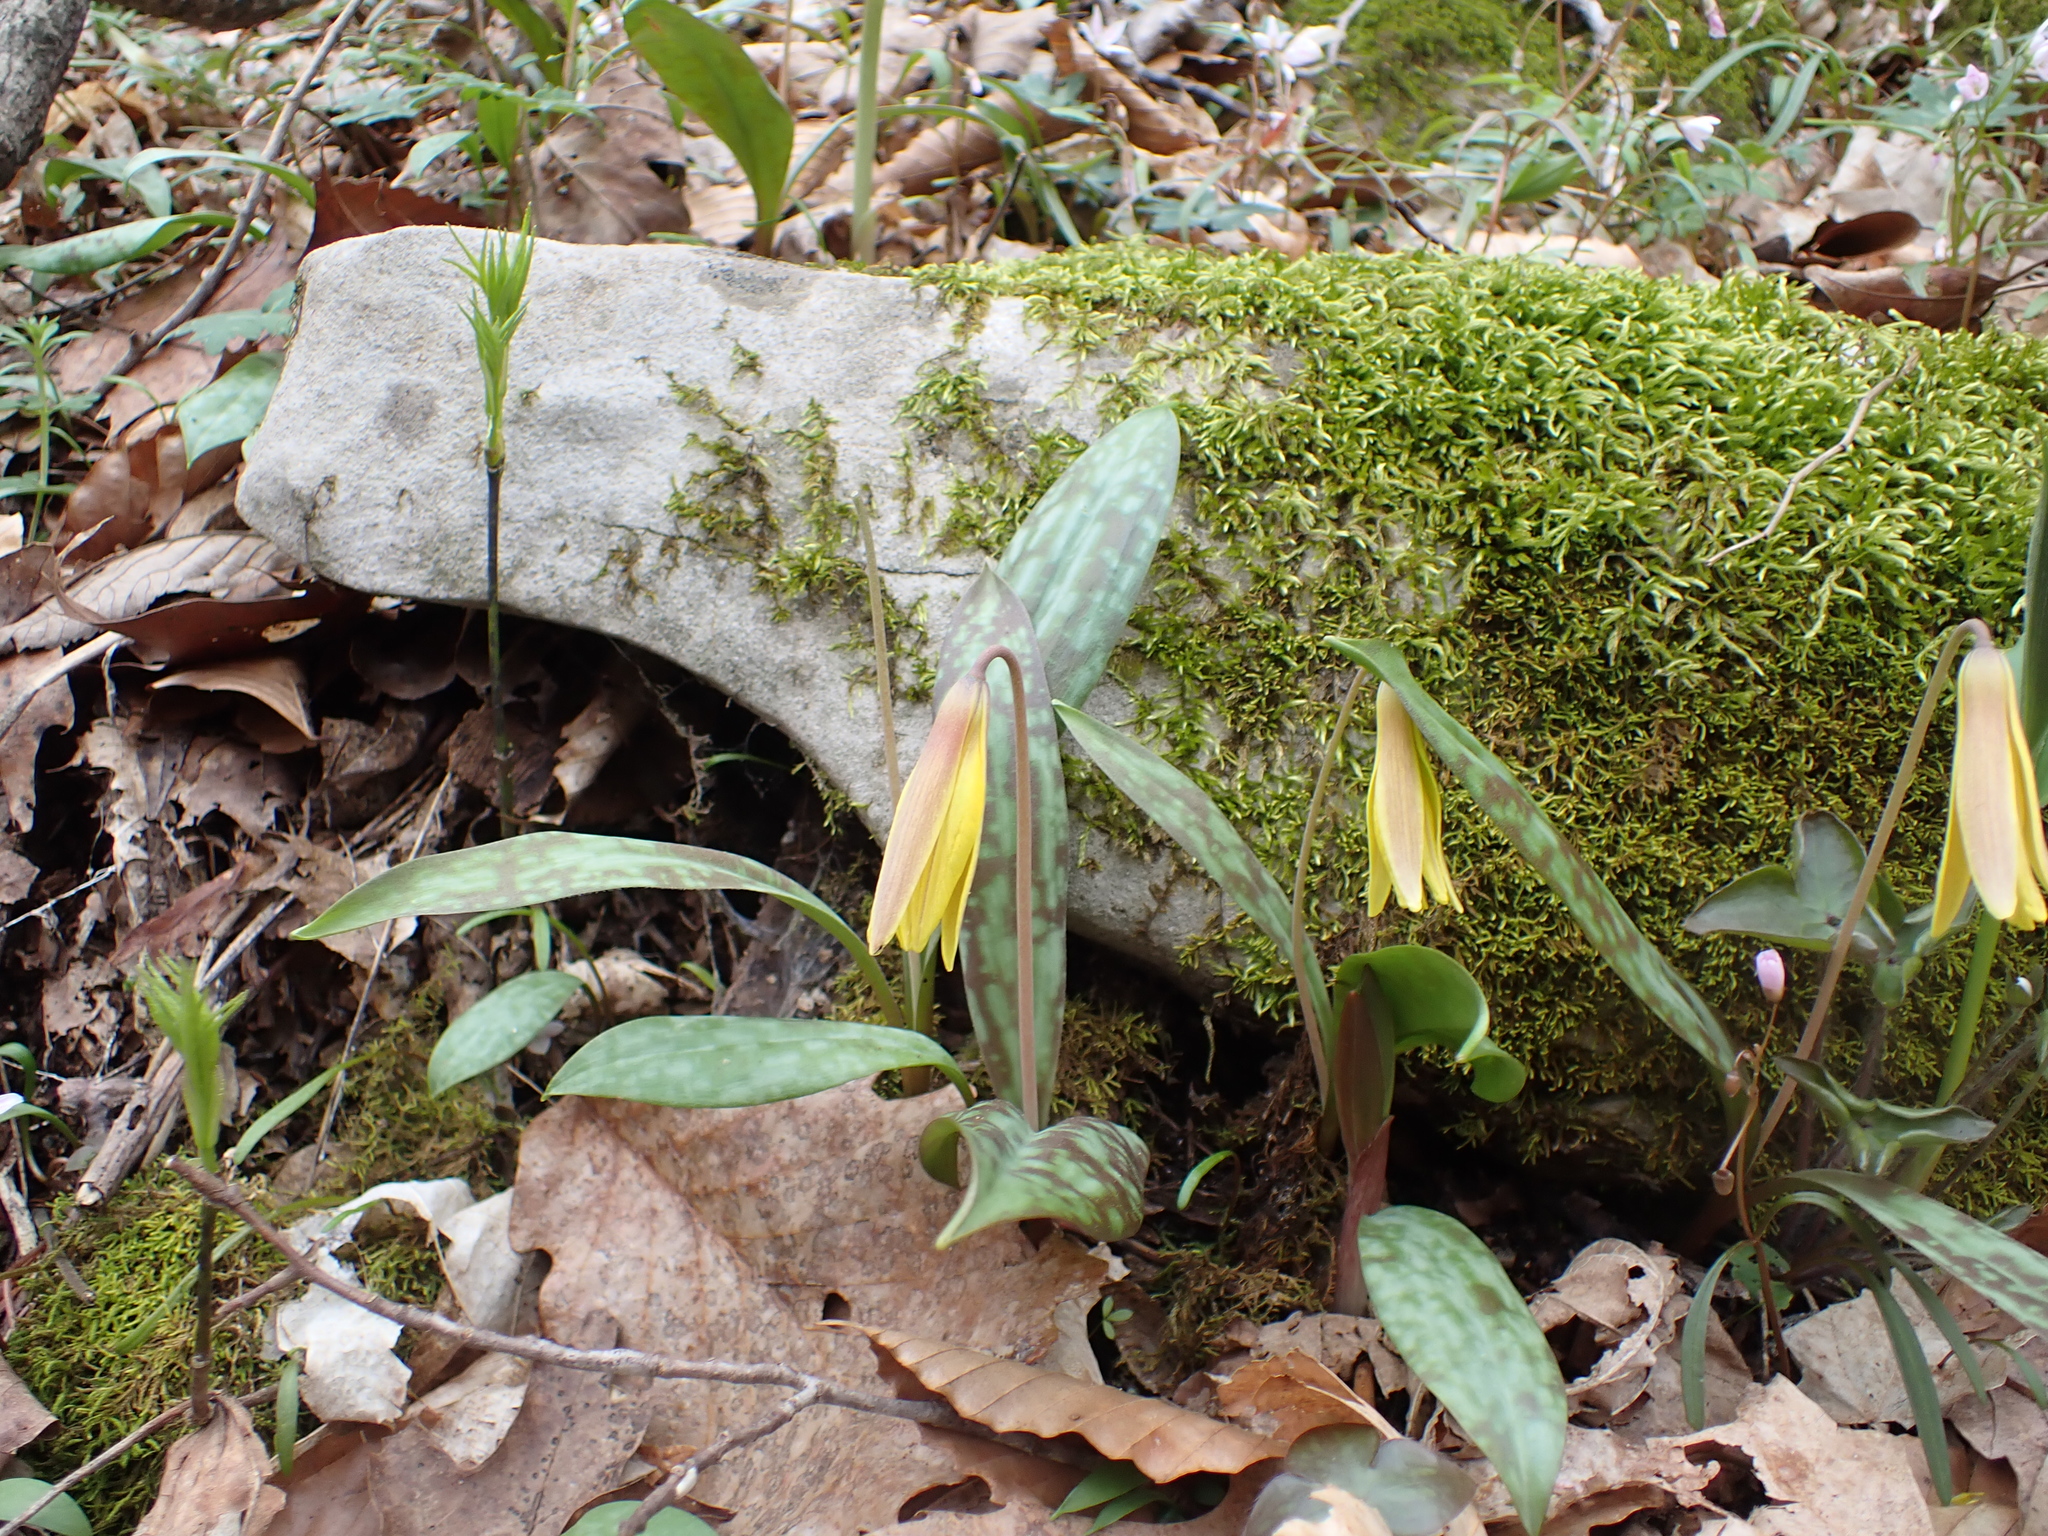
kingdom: Plantae
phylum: Tracheophyta
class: Liliopsida
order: Liliales
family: Liliaceae
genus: Erythronium
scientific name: Erythronium americanum
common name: Yellow adder's-tongue
